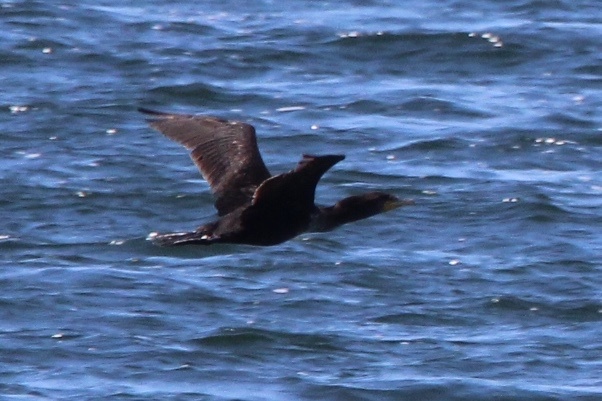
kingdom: Animalia
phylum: Chordata
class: Aves
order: Suliformes
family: Phalacrocoracidae
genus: Phalacrocorax
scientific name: Phalacrocorax auritus
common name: Double-crested cormorant
